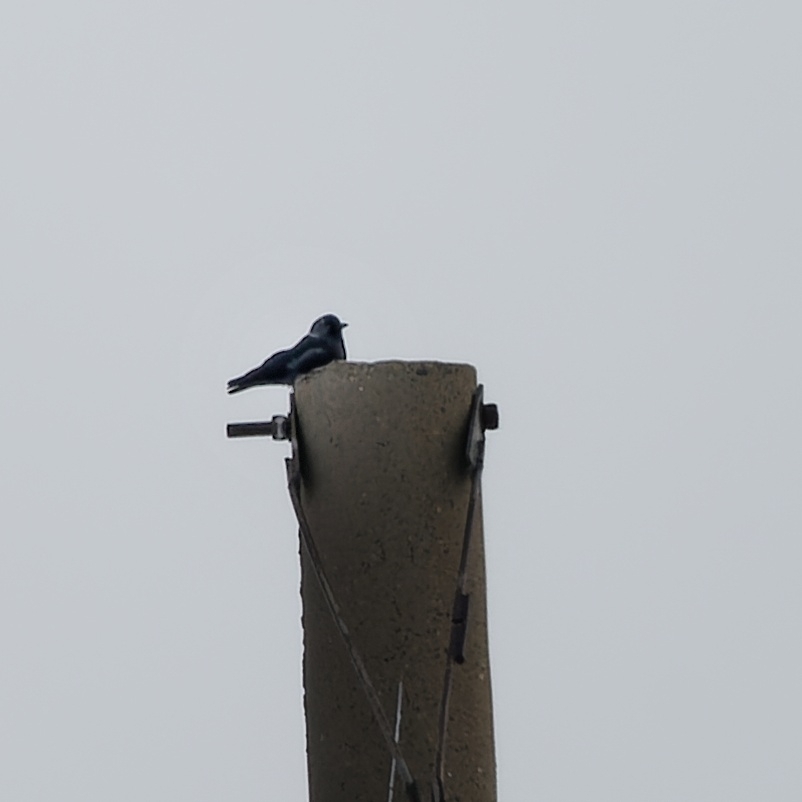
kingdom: Animalia
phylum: Chordata
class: Aves
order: Passeriformes
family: Corvidae
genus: Coloeus
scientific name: Coloeus monedula
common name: Western jackdaw
